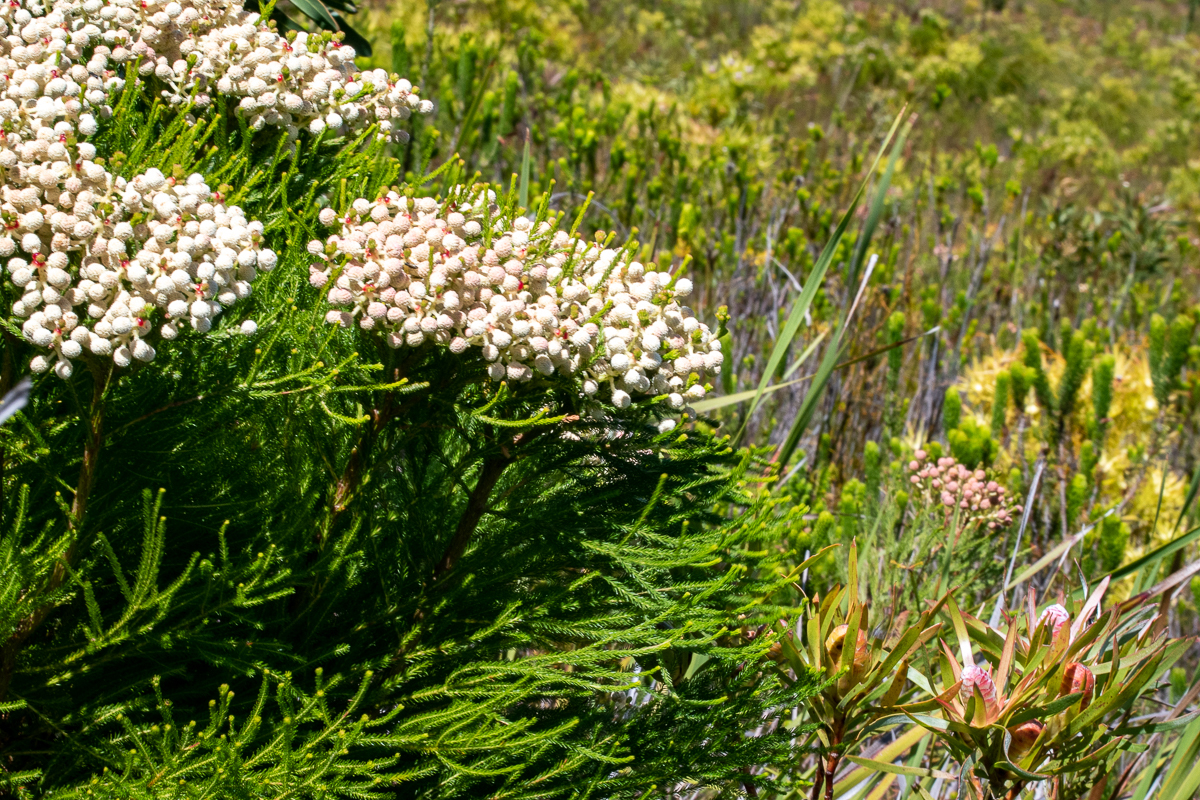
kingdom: Plantae
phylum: Tracheophyta
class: Magnoliopsida
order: Bruniales
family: Bruniaceae
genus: Berzelia
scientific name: Berzelia lanuginosa
